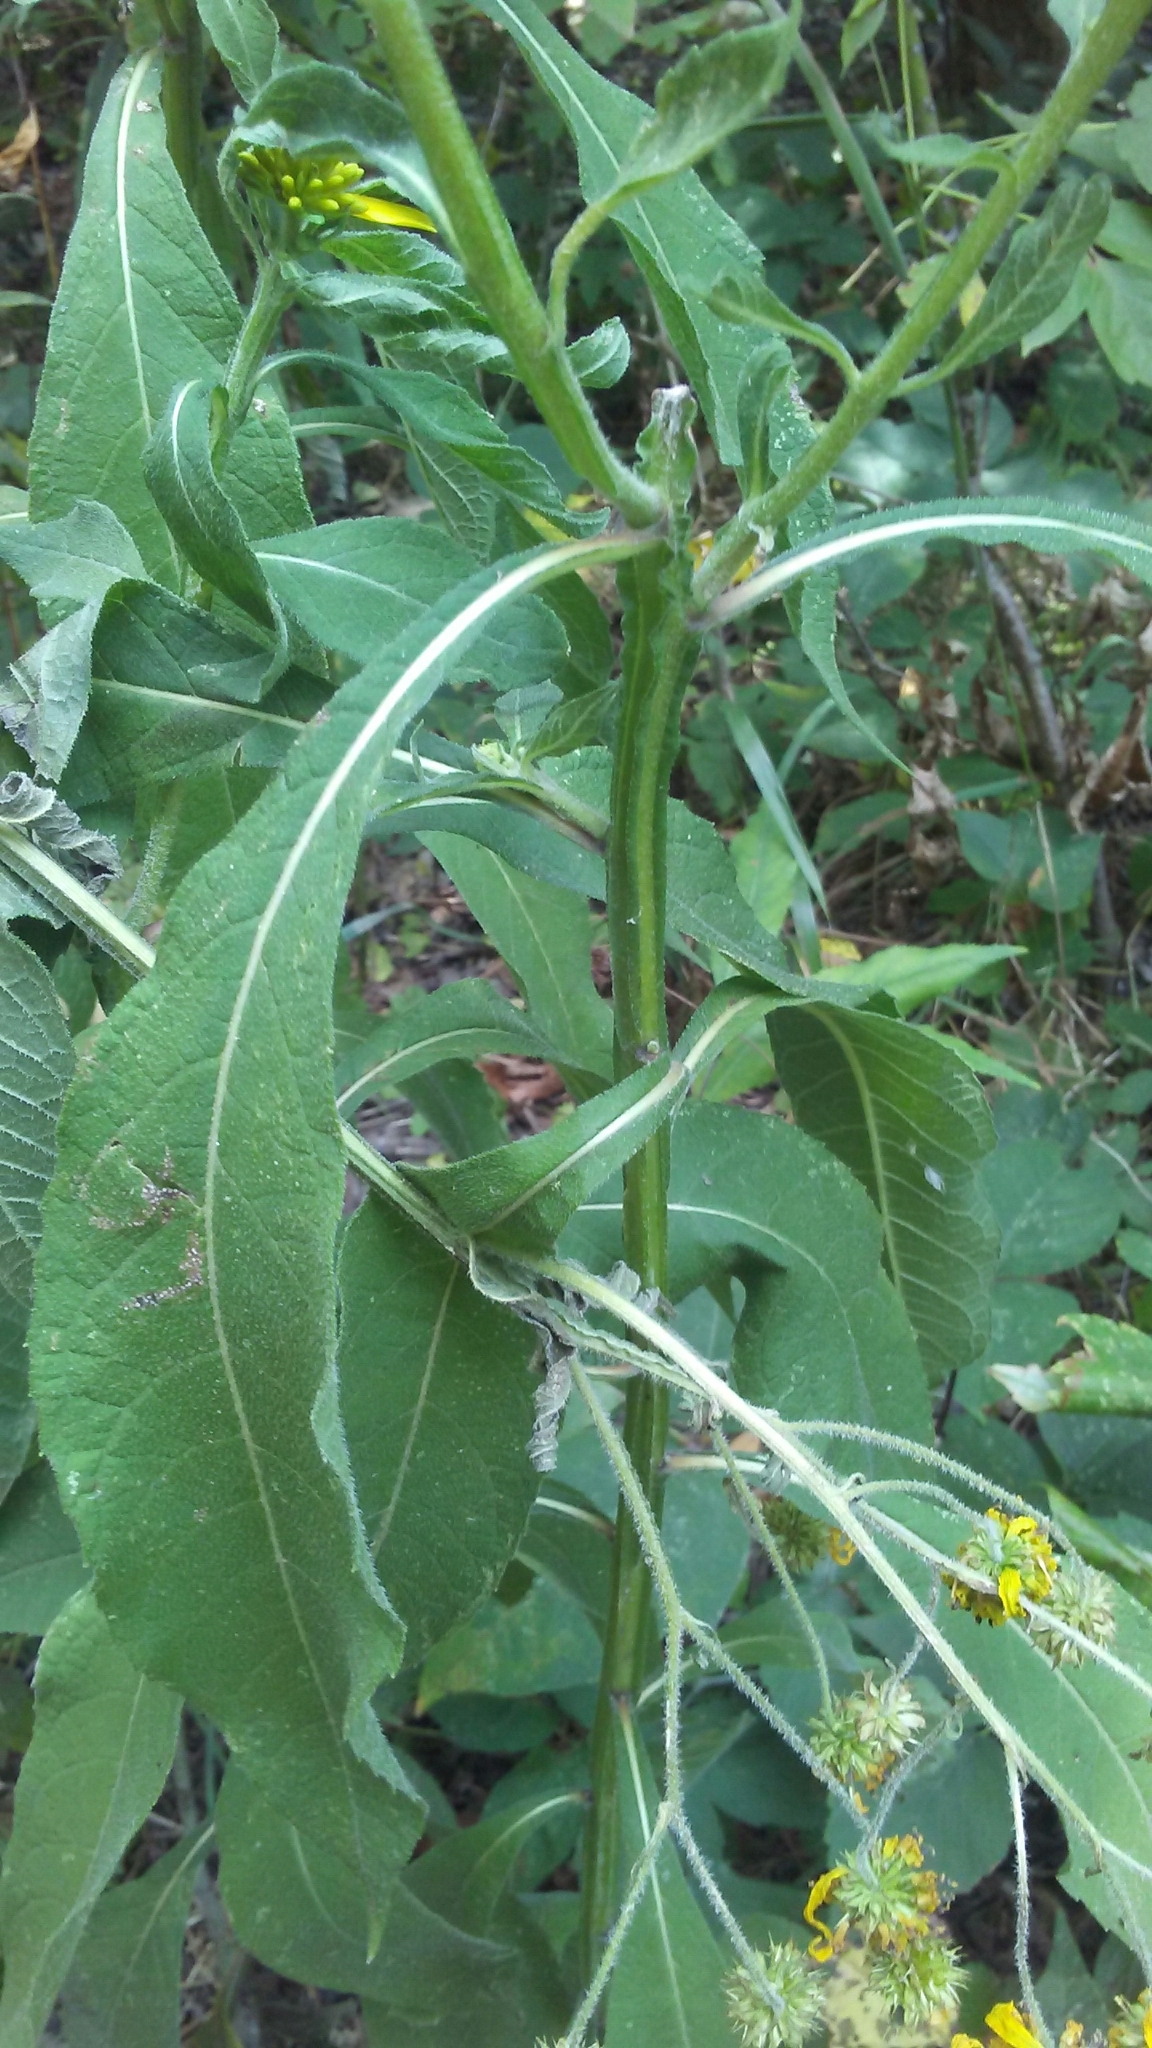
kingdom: Plantae
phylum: Tracheophyta
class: Magnoliopsida
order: Asterales
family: Asteraceae
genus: Verbesina
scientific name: Verbesina alternifolia
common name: Wingstem
